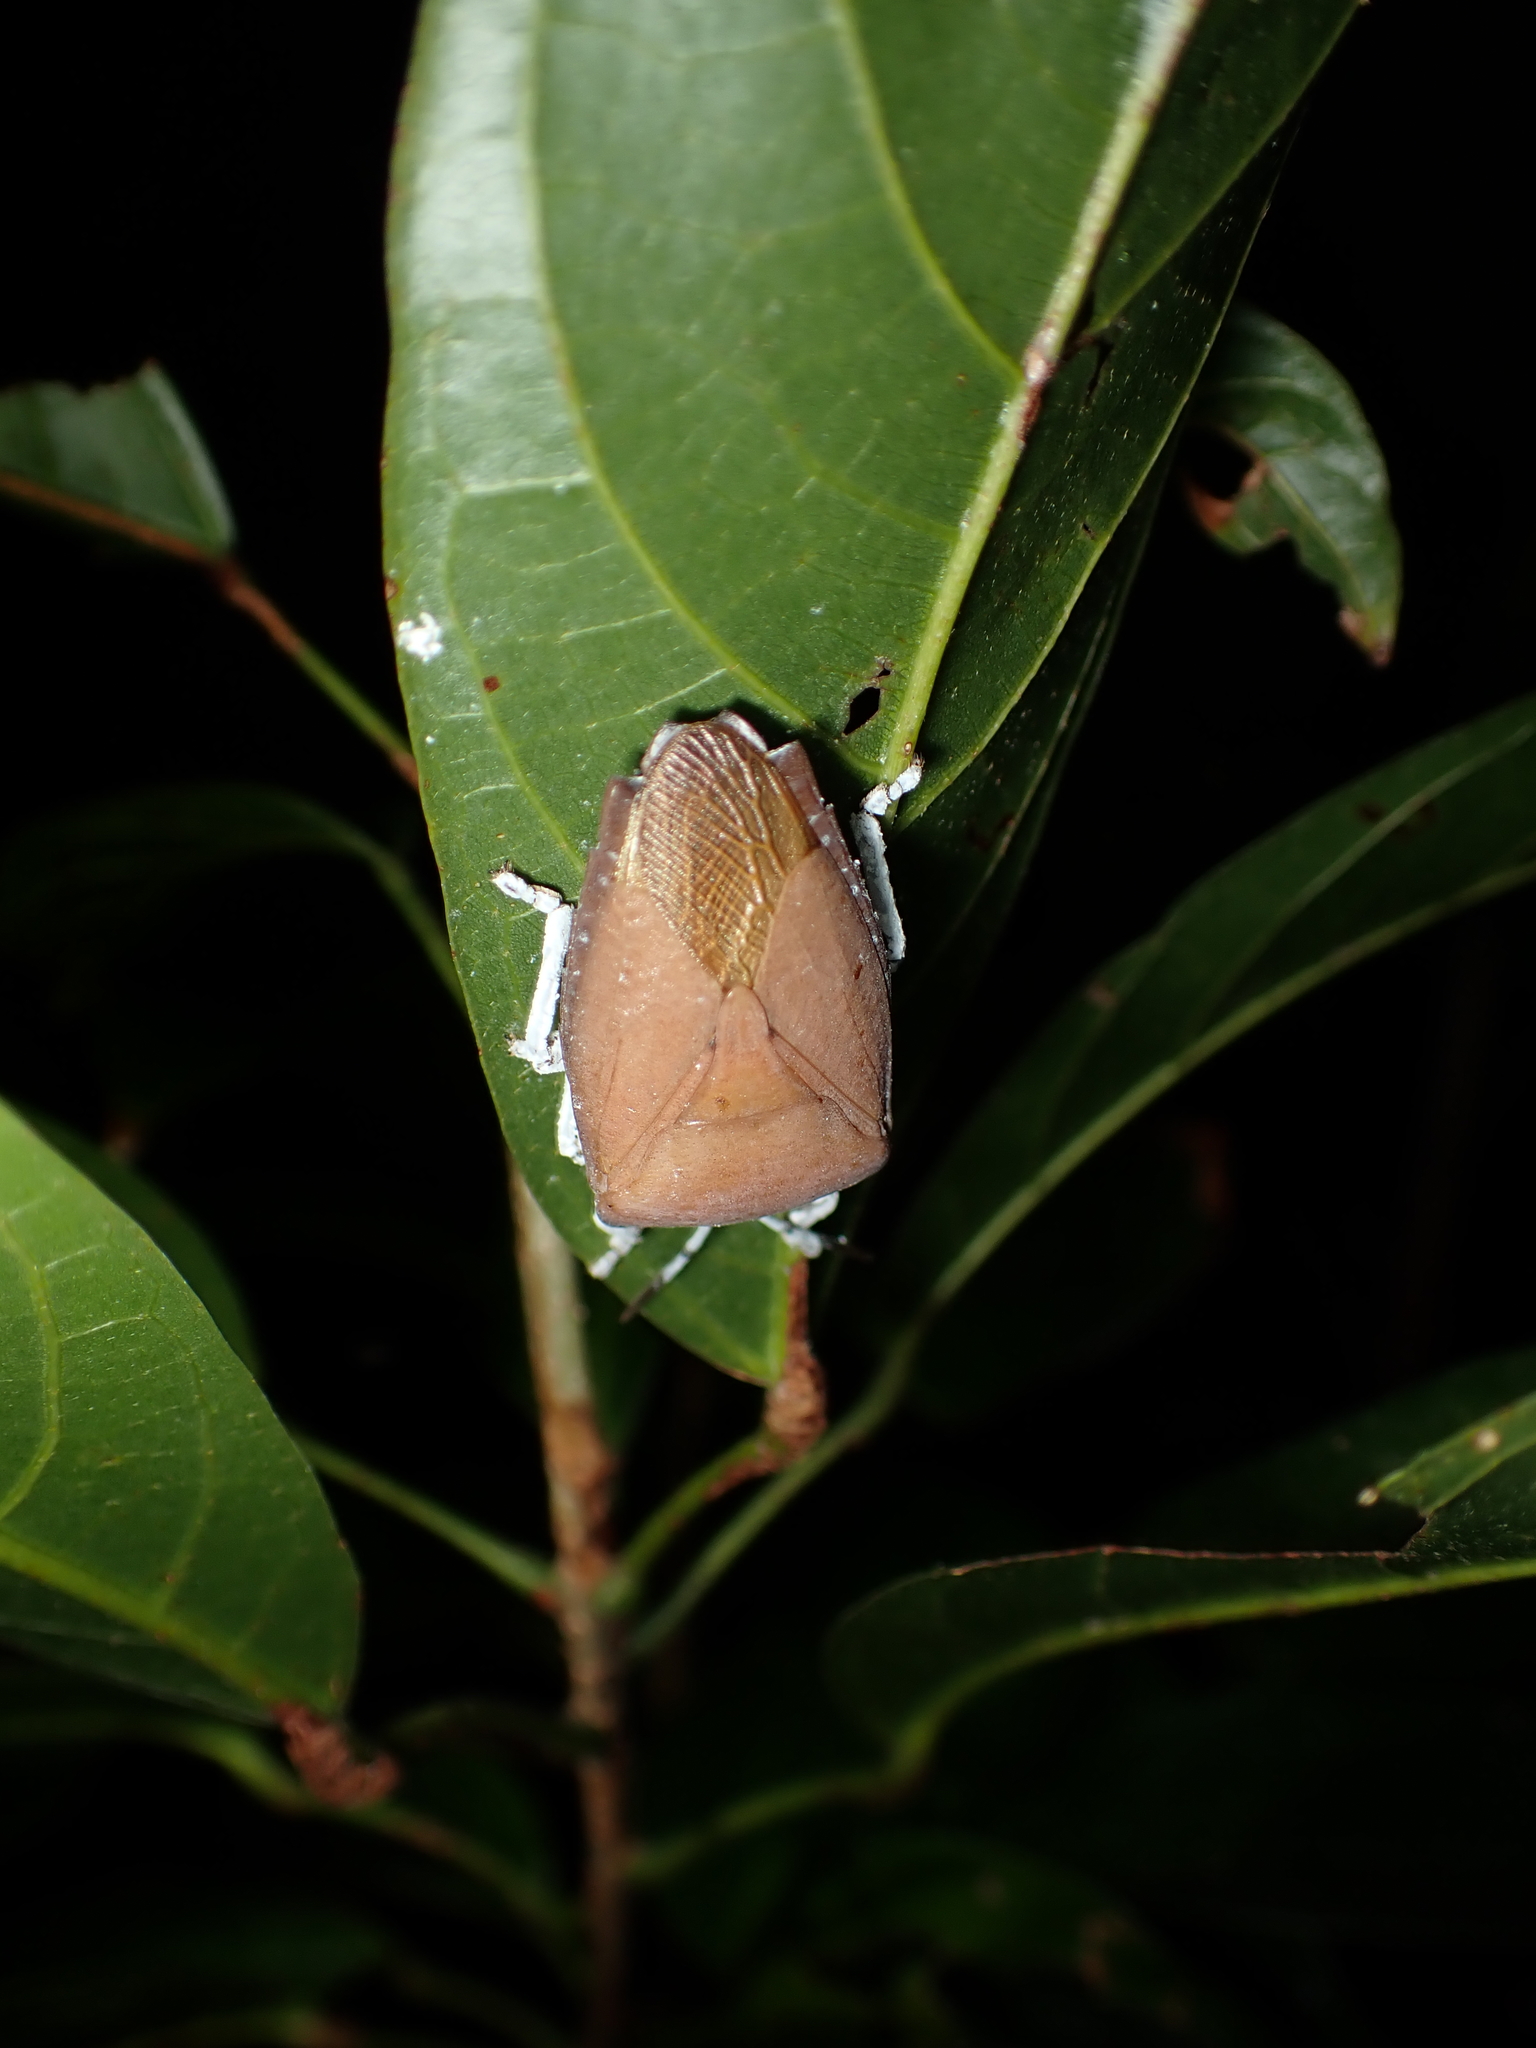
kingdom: Animalia
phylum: Arthropoda
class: Insecta
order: Hemiptera
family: Tessaratomidae
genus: Tessaratoma
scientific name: Tessaratoma papillosa
